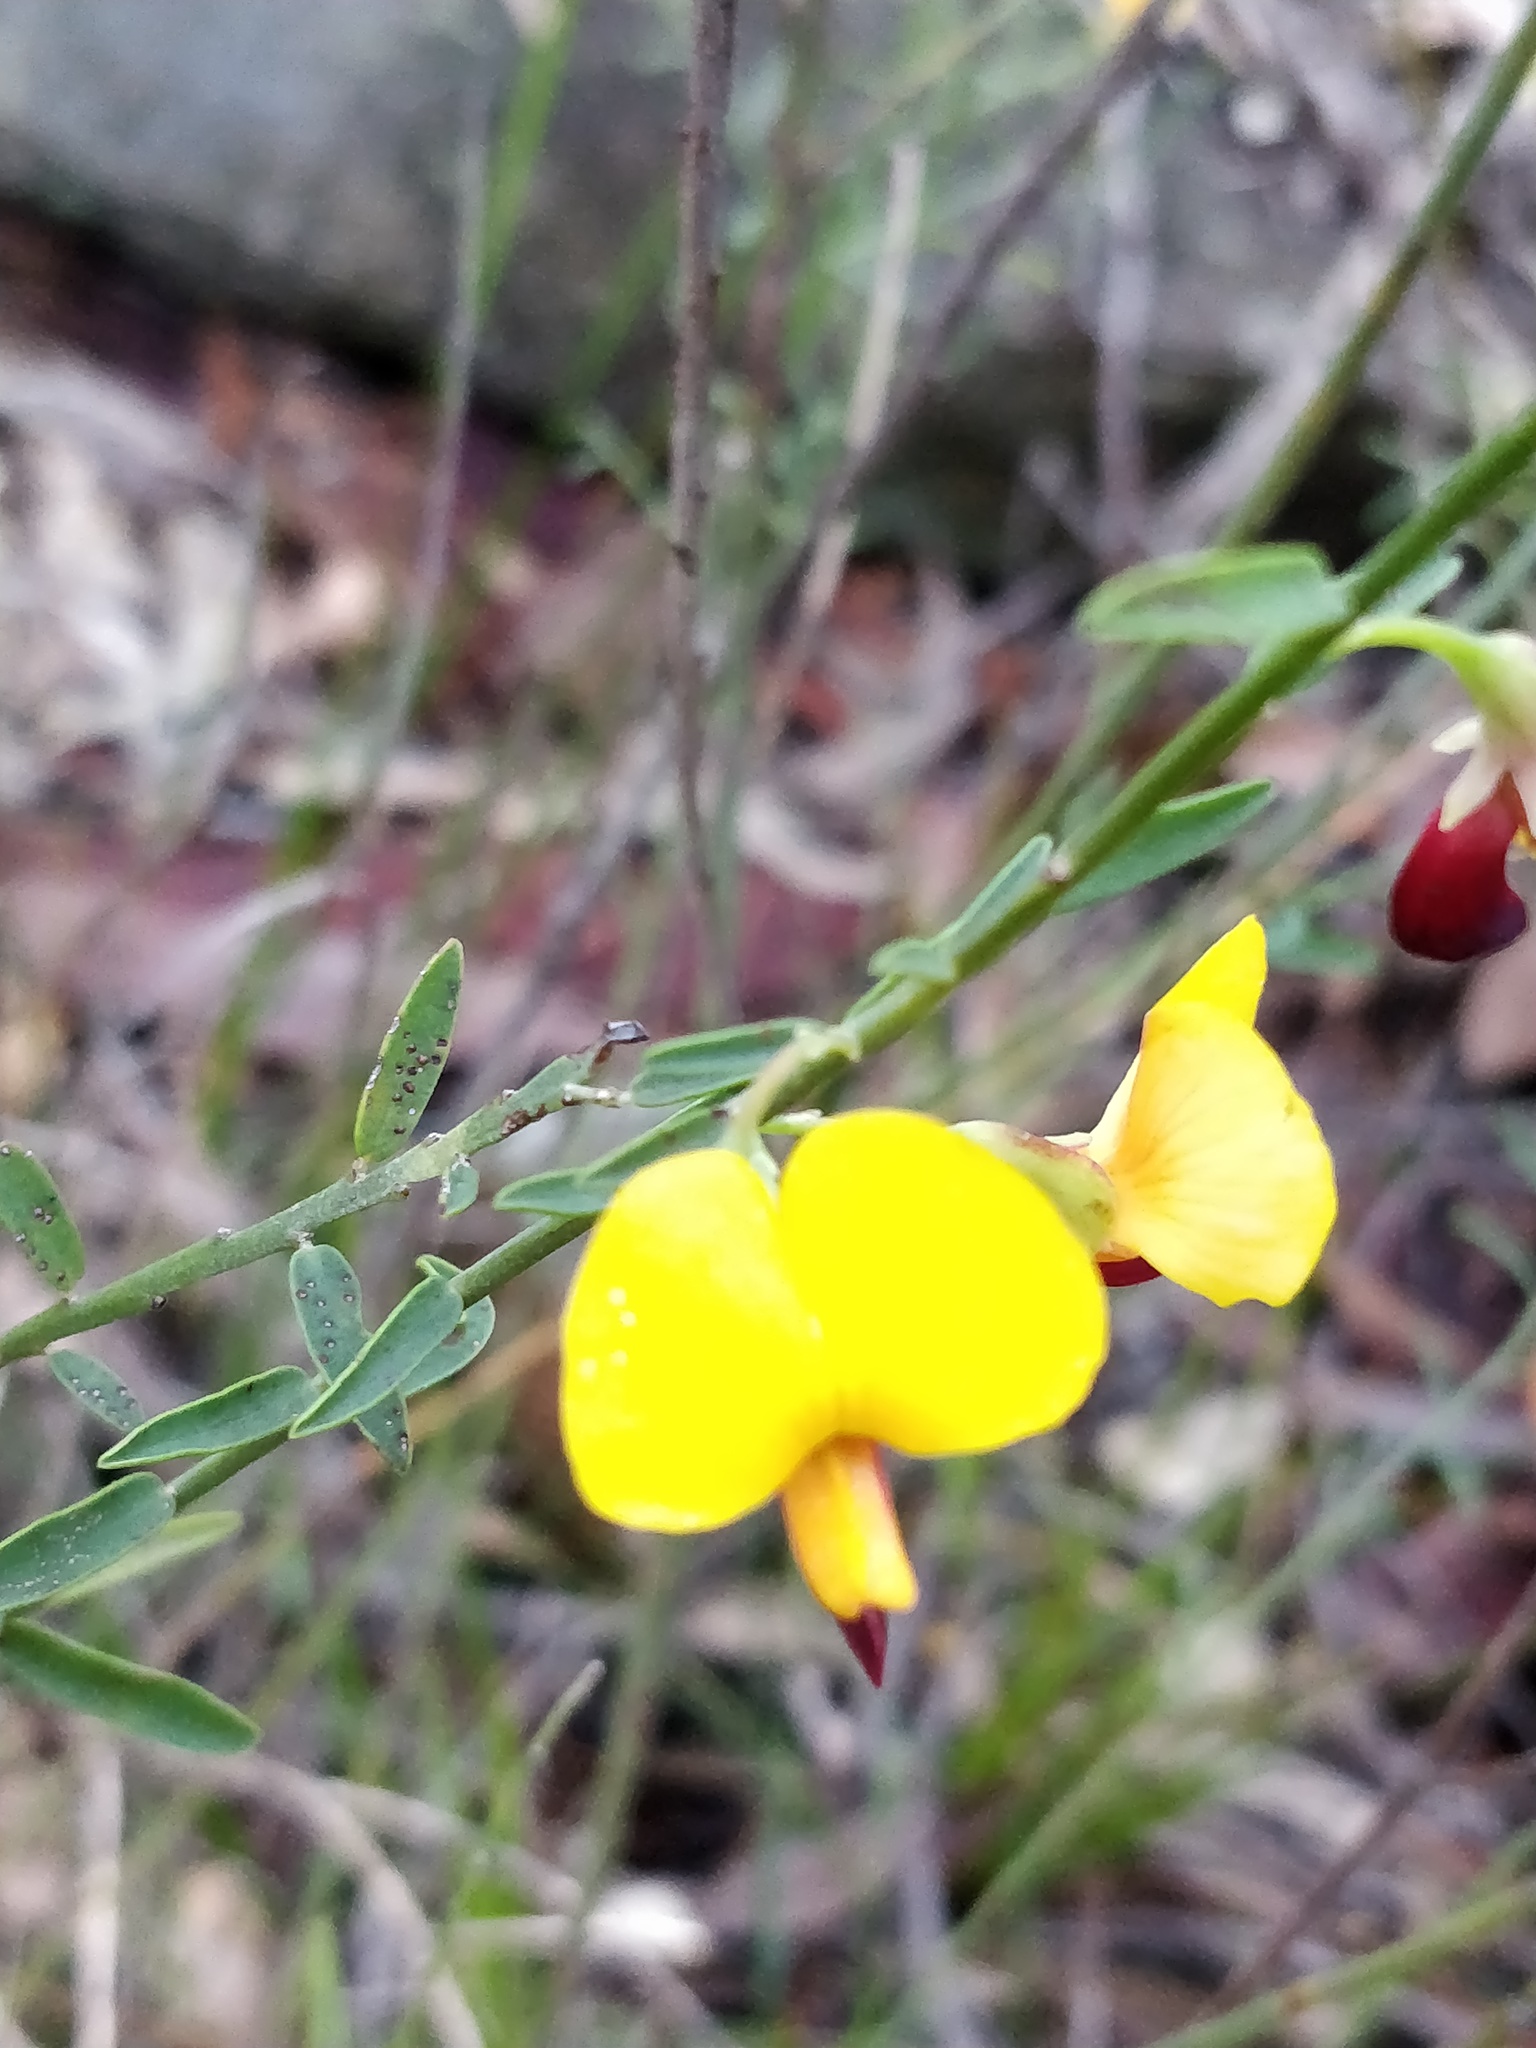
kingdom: Plantae
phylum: Tracheophyta
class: Magnoliopsida
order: Fabales
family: Fabaceae
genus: Bossiaea
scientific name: Bossiaea heterophylla
